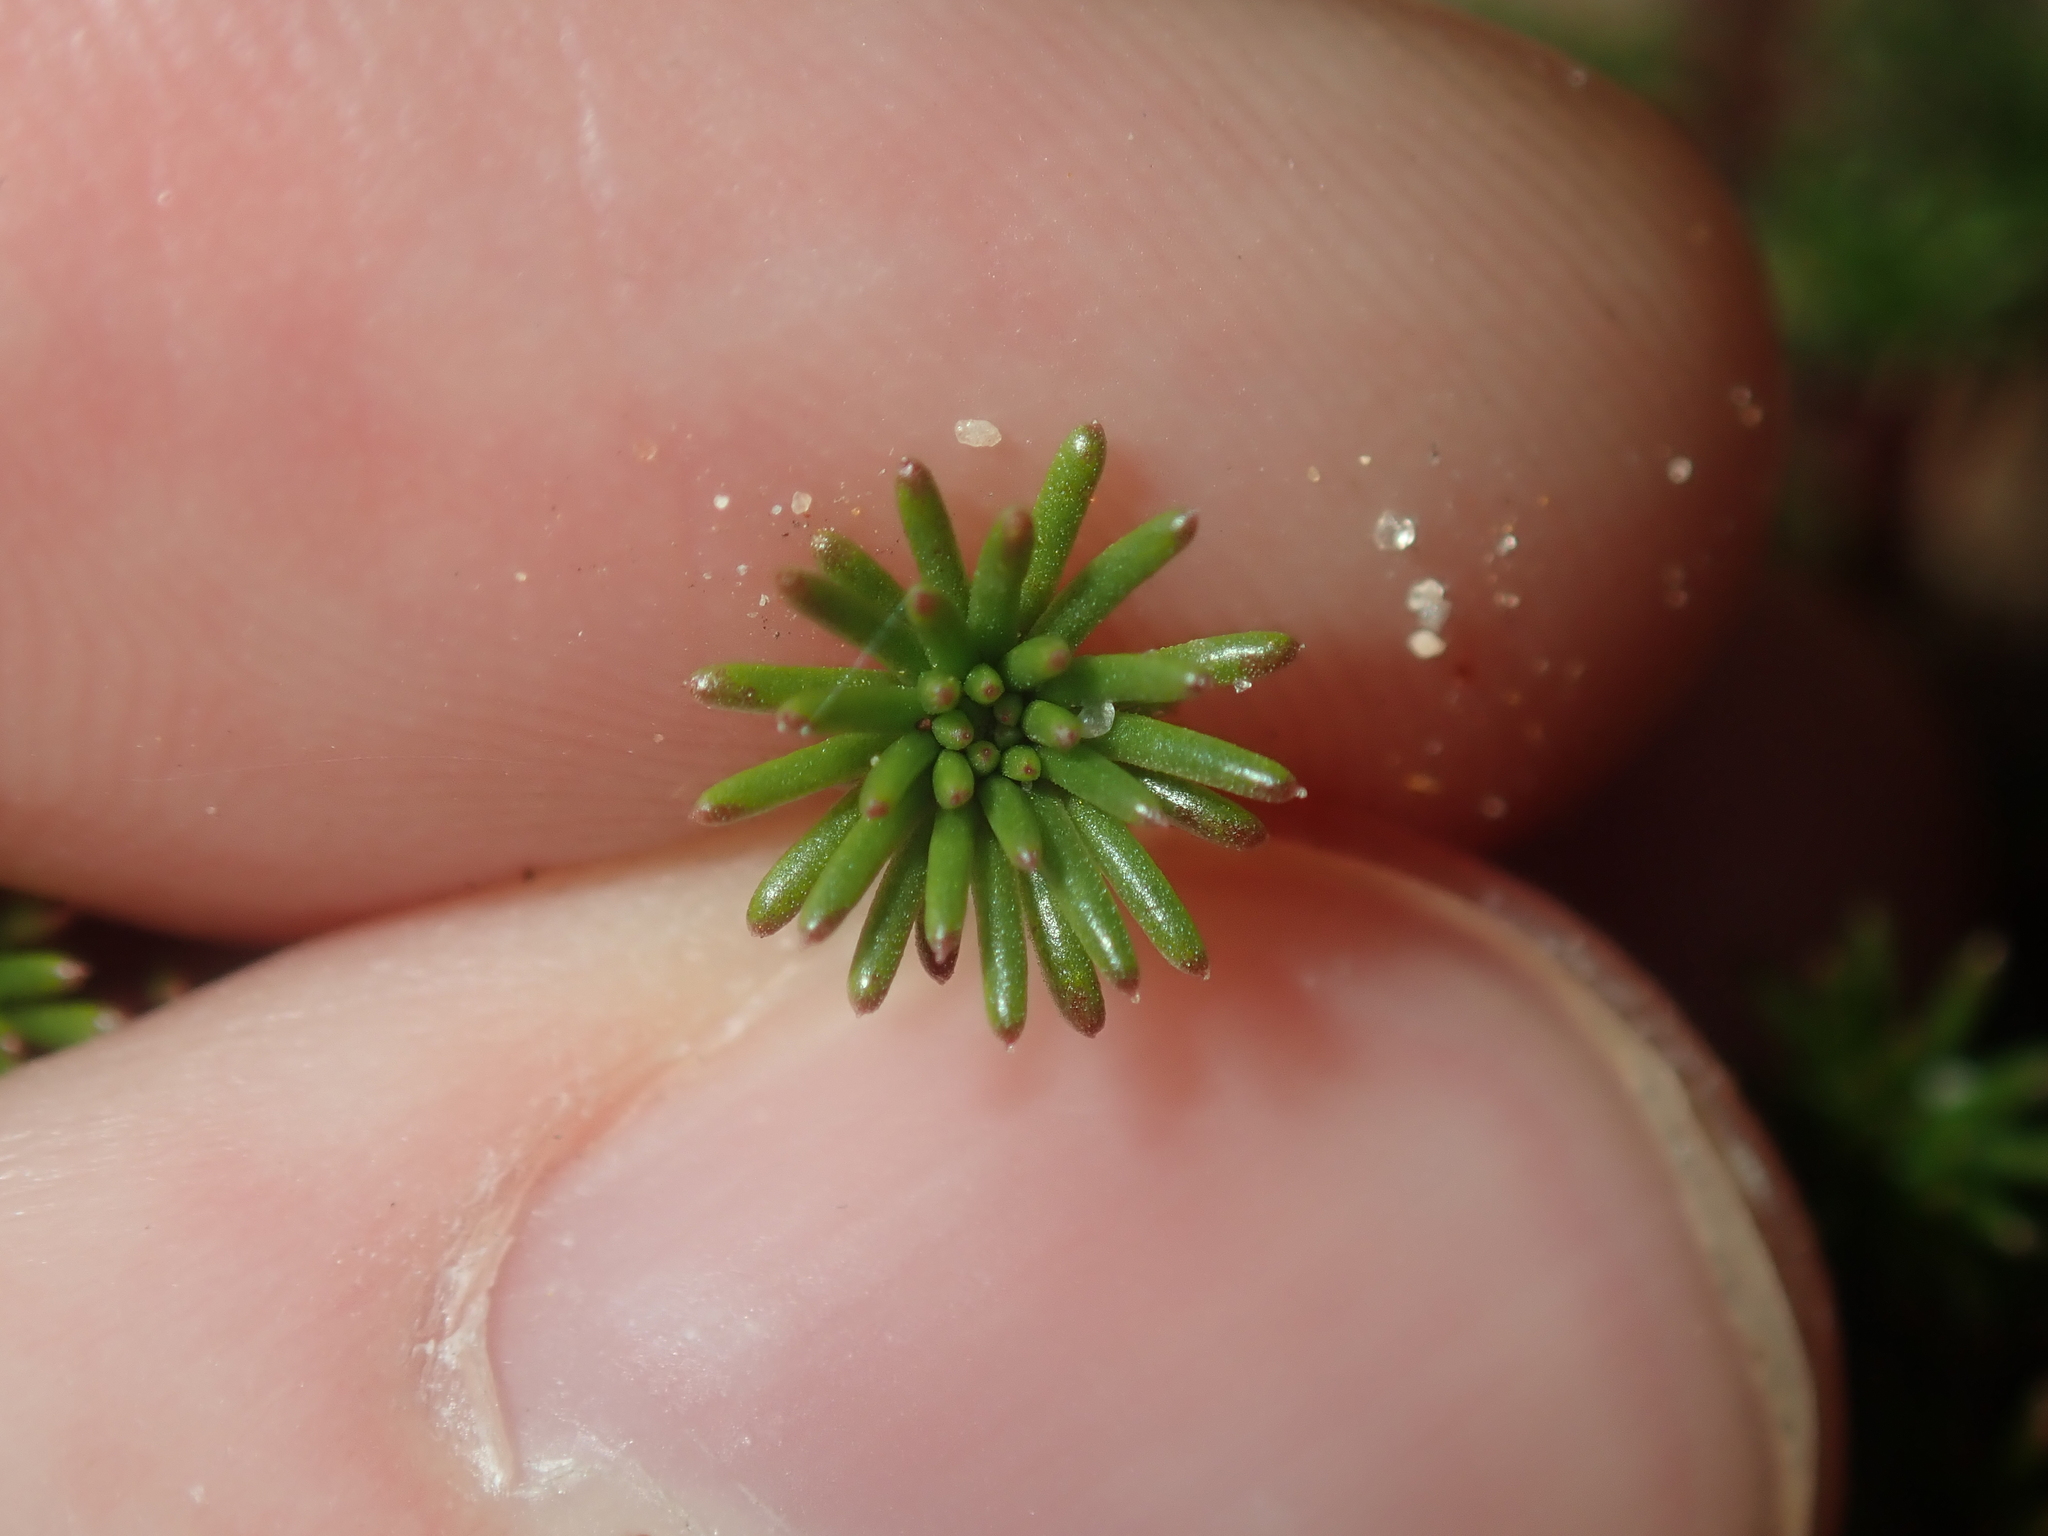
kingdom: Plantae
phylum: Tracheophyta
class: Magnoliopsida
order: Asterales
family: Stylidiaceae
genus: Stylidium
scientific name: Stylidium septentrionale
